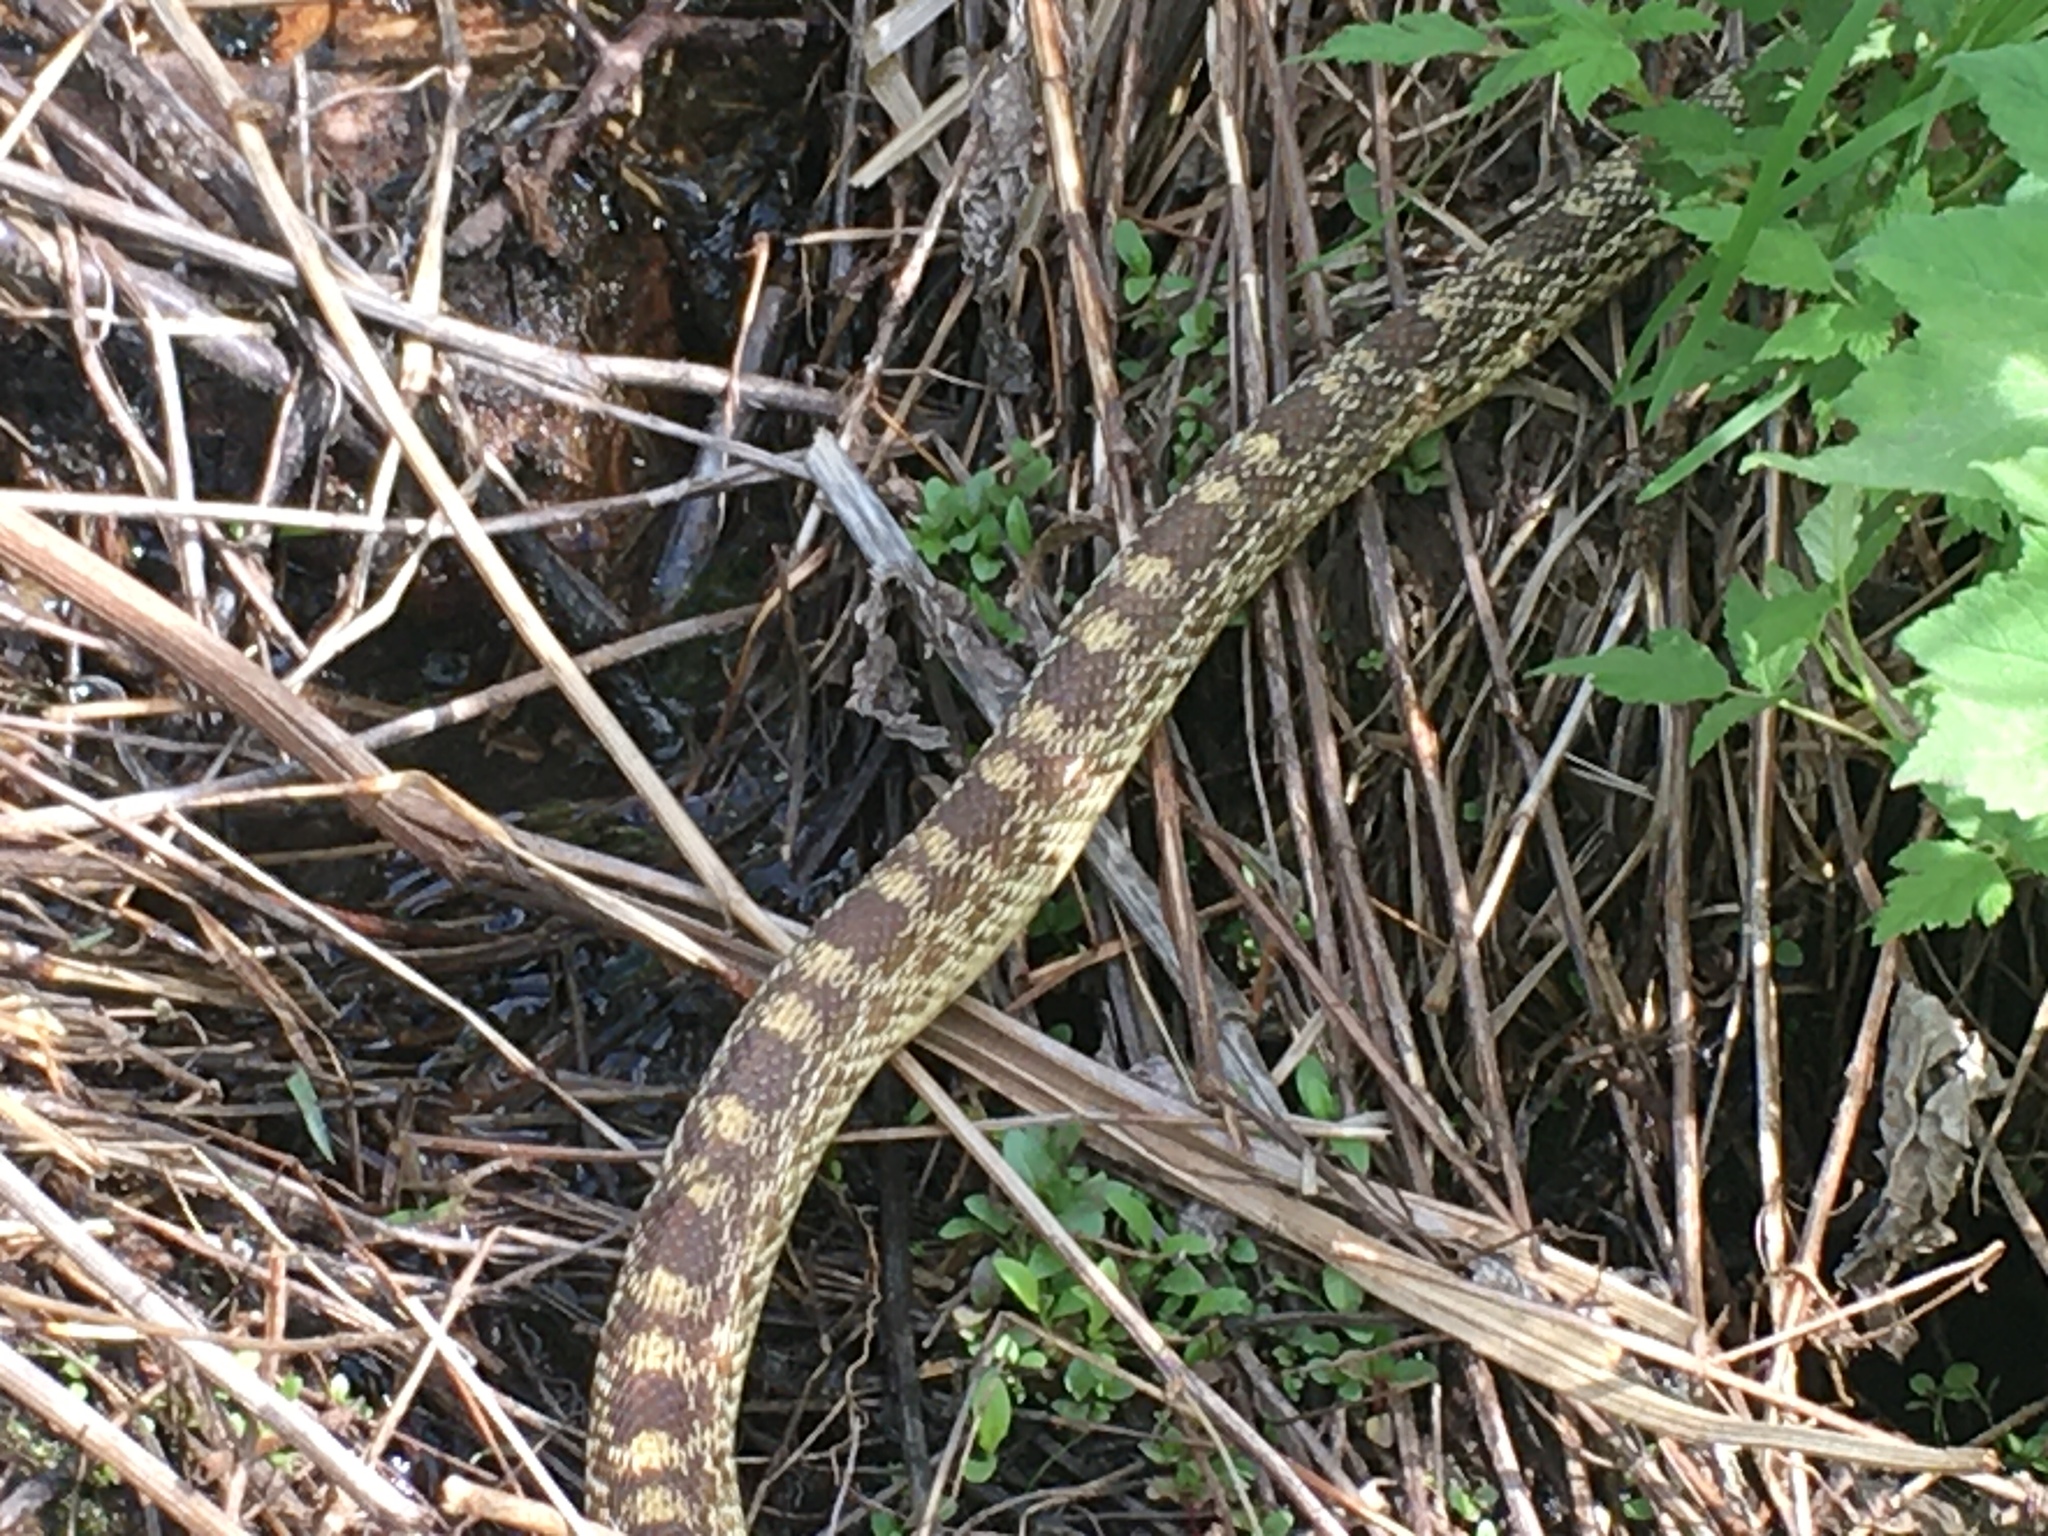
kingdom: Animalia
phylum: Chordata
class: Squamata
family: Colubridae
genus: Pituophis
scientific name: Pituophis catenifer
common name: Gopher snake
